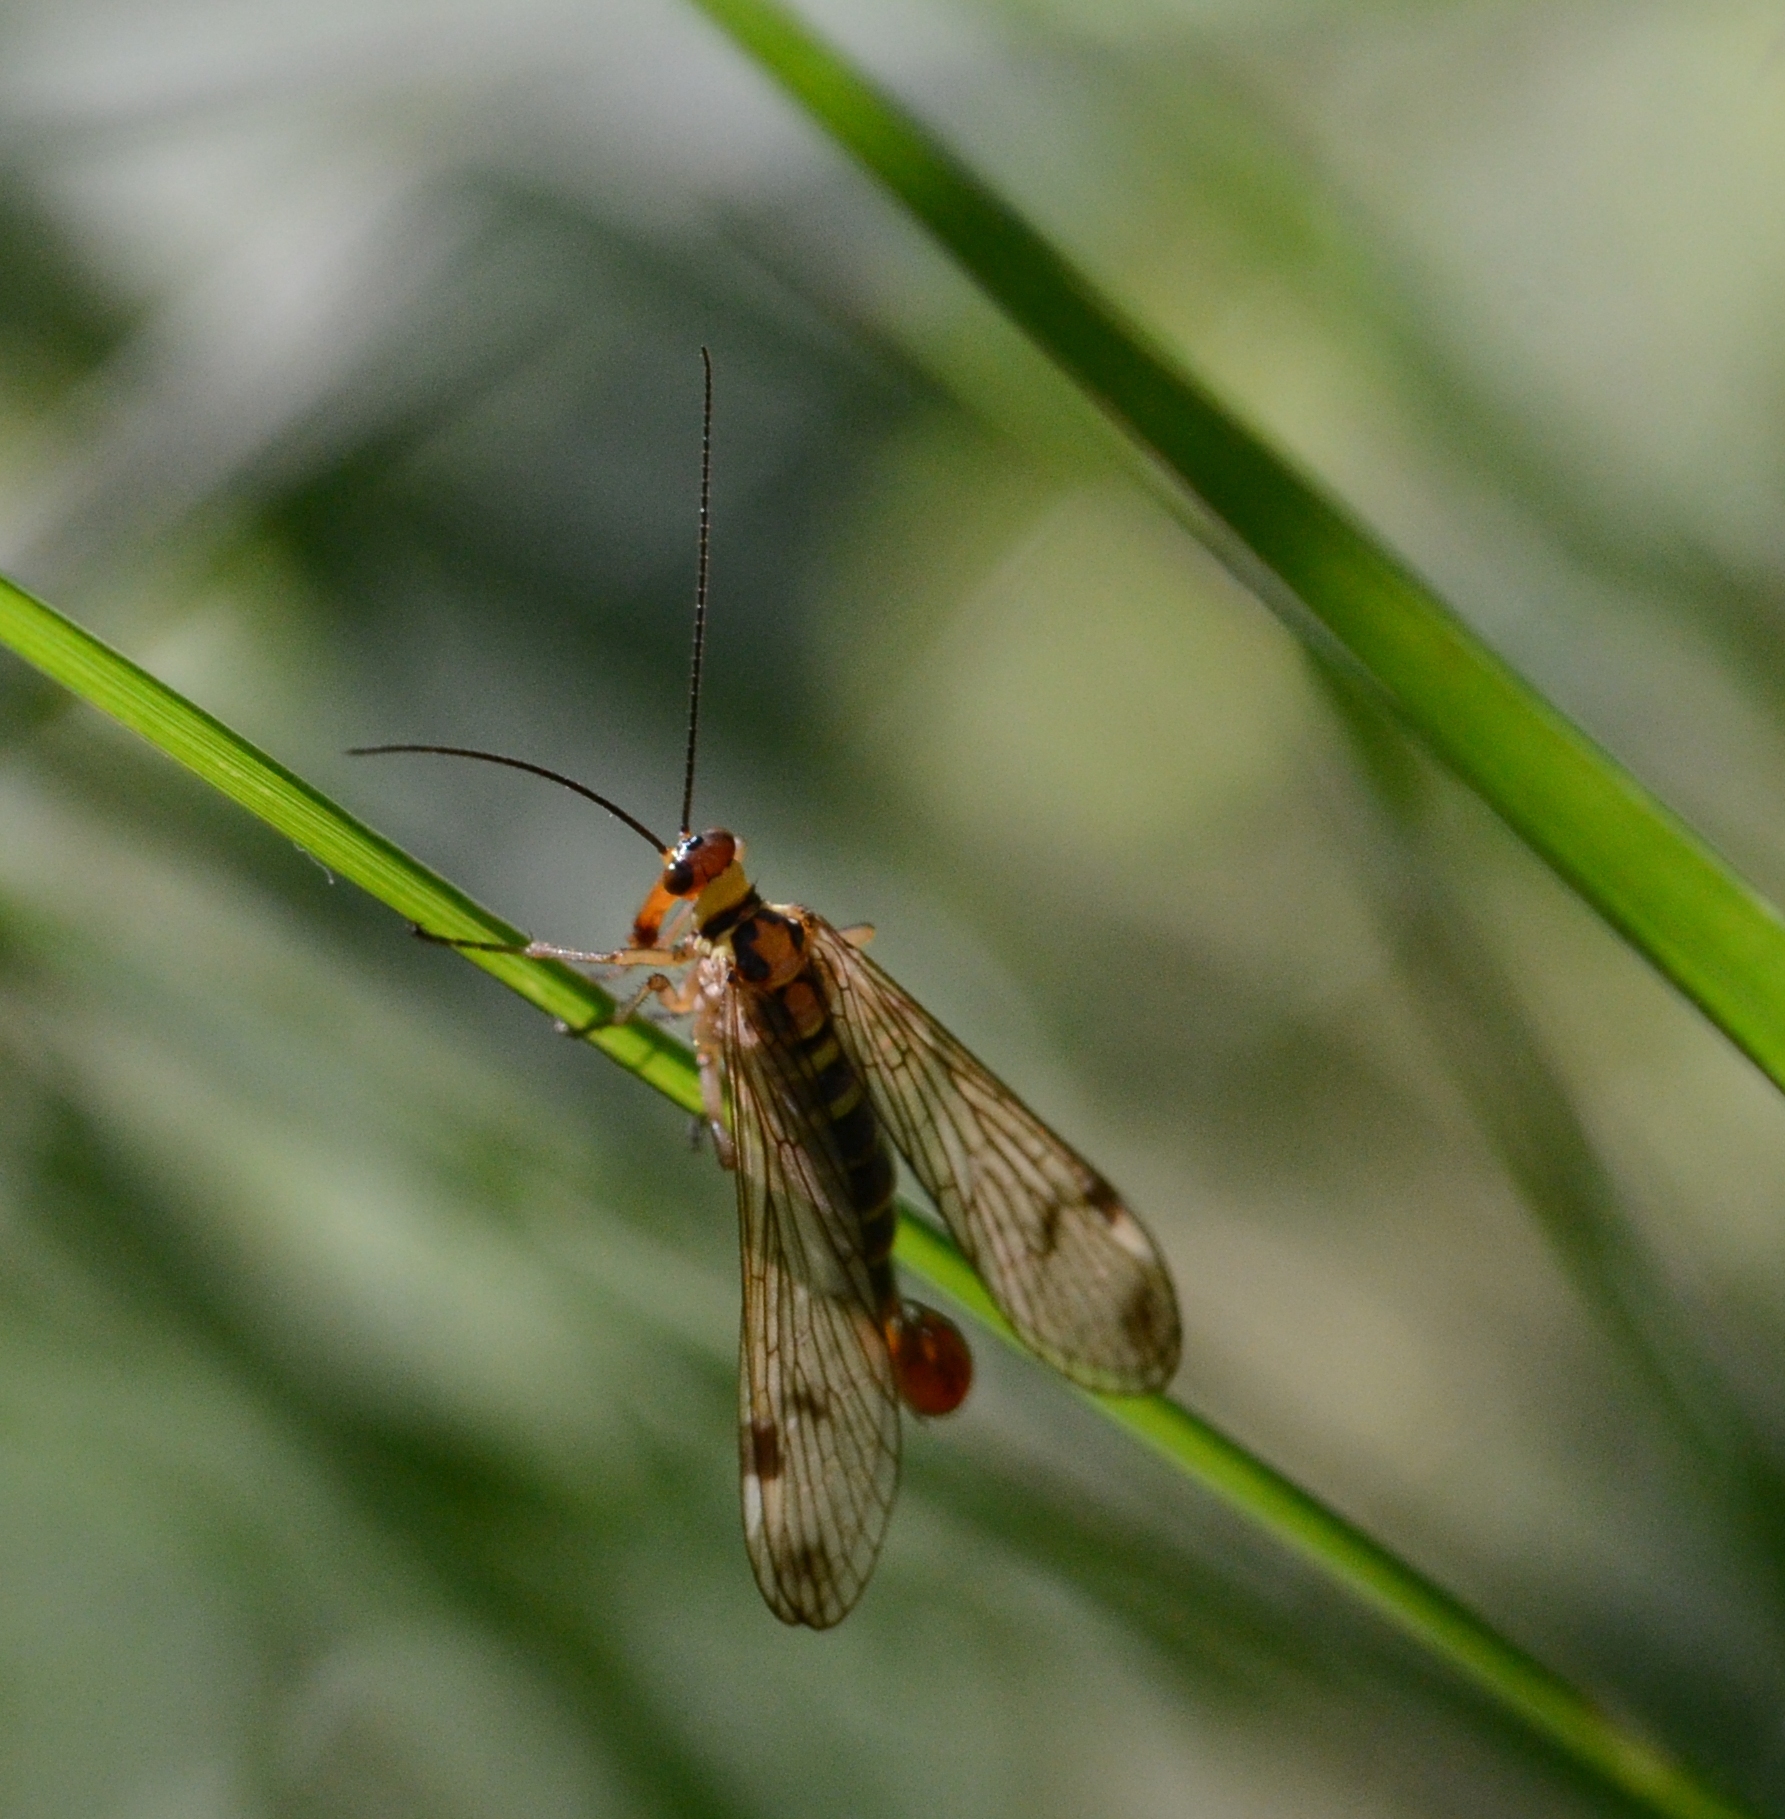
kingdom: Animalia
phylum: Arthropoda
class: Insecta
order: Mecoptera
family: Panorpidae
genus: Panorpa
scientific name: Panorpa cognata
